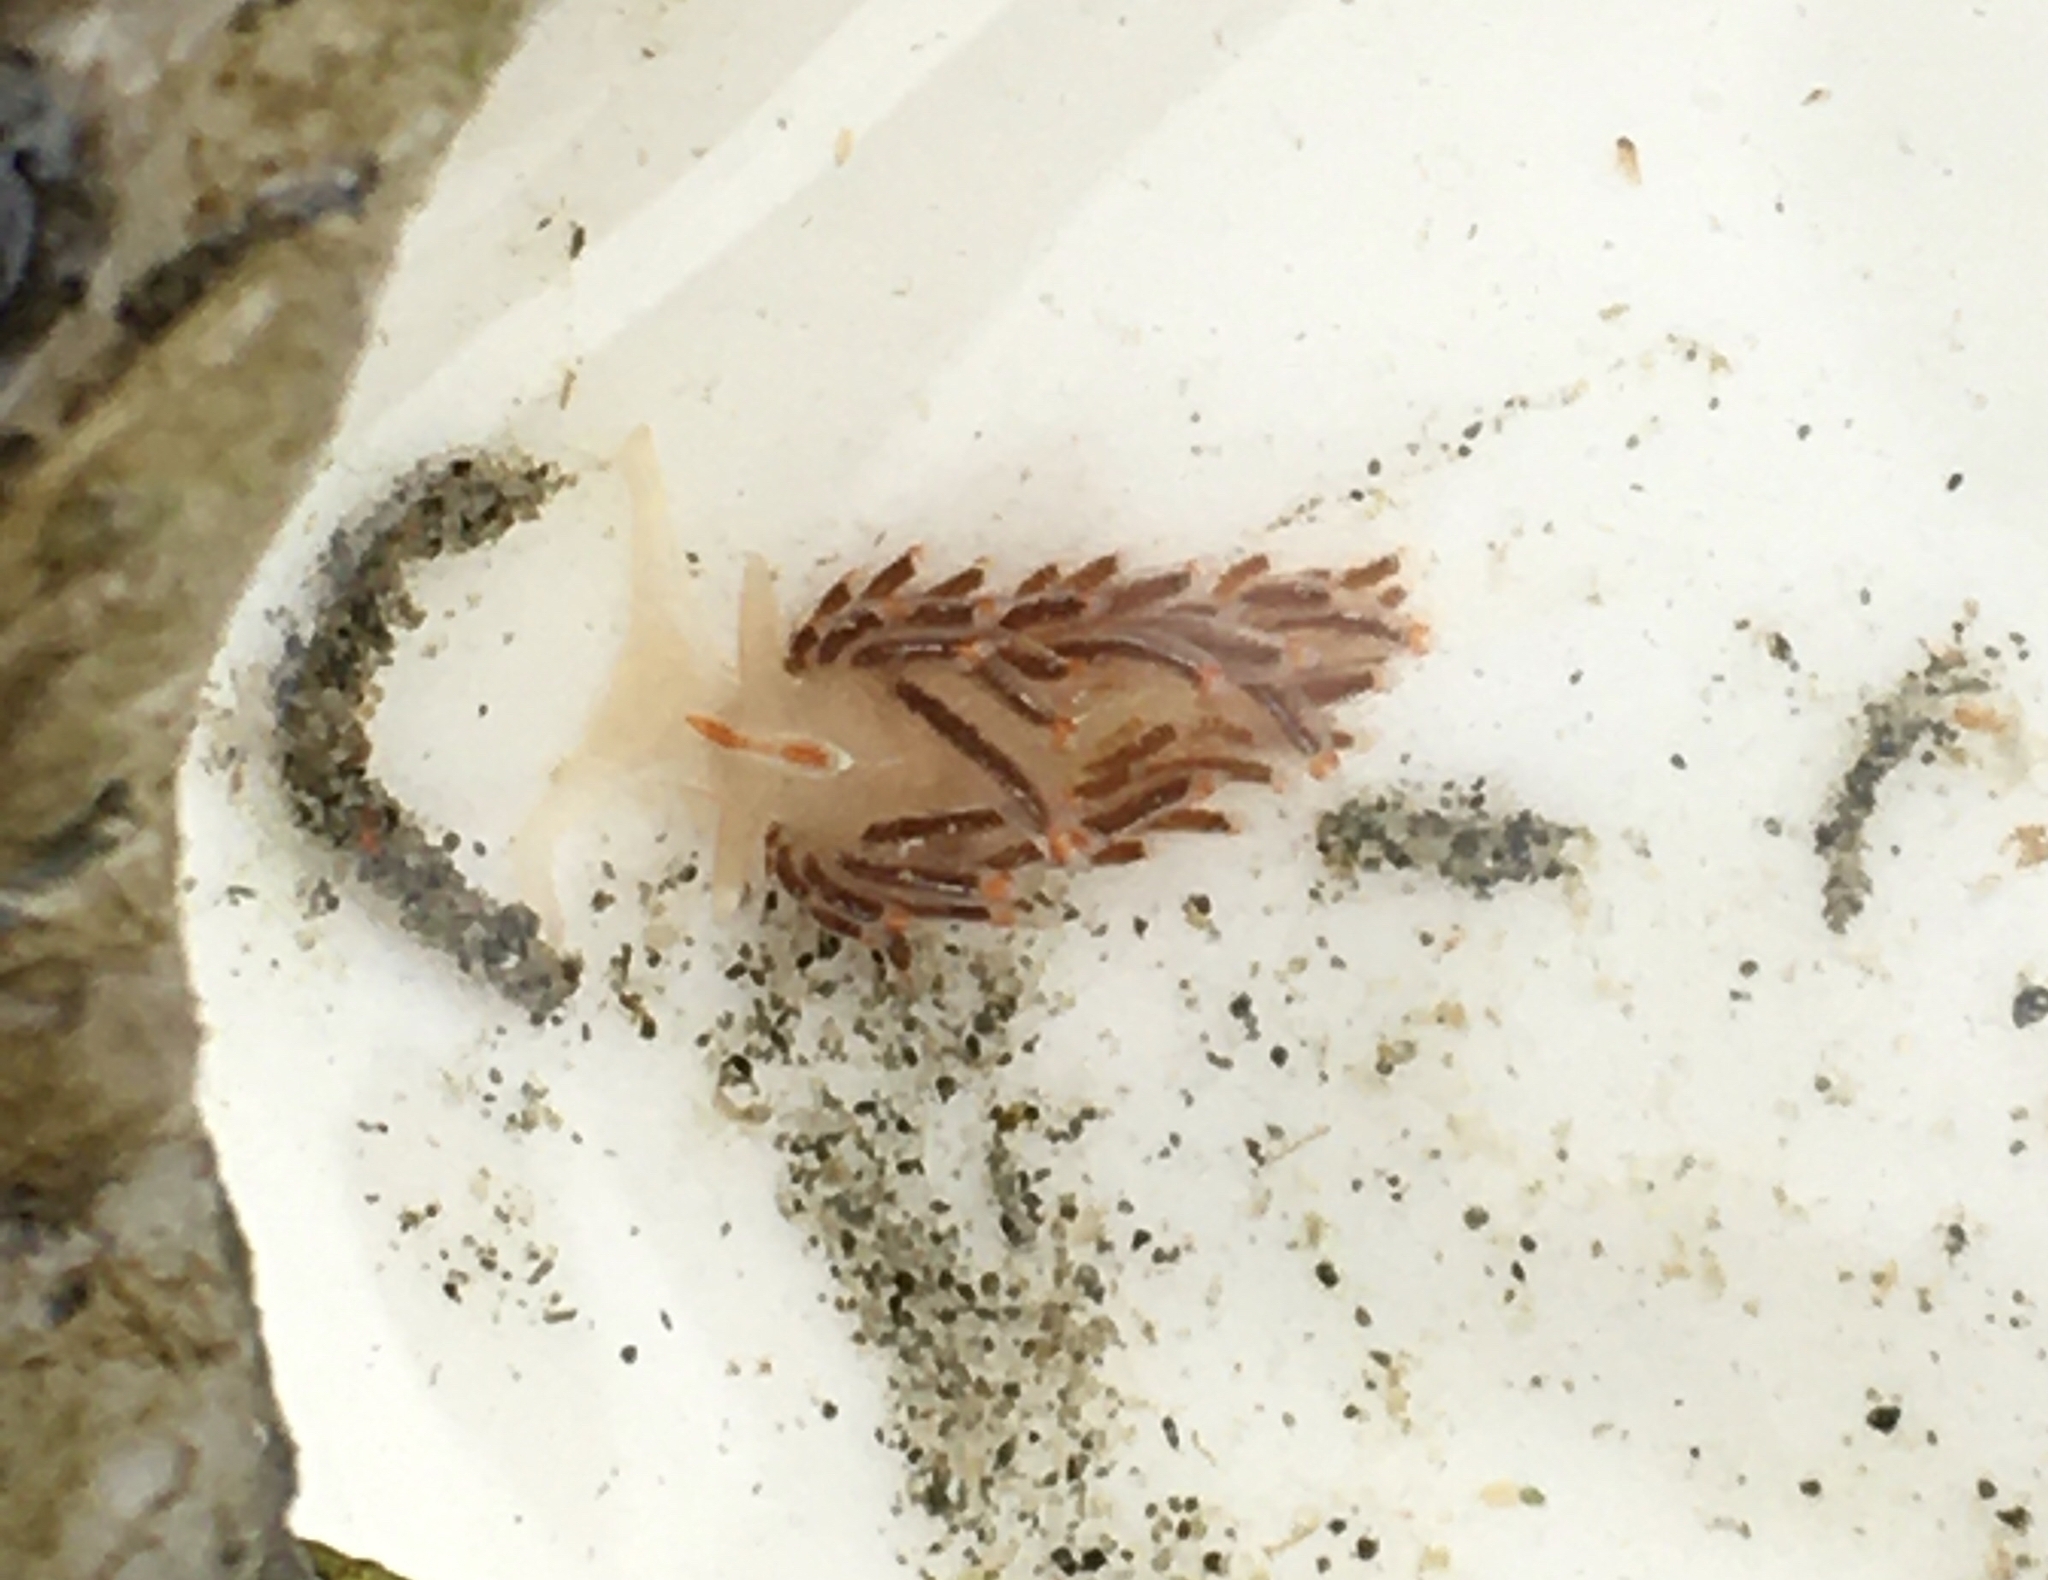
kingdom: Animalia
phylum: Mollusca
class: Gastropoda
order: Nudibranchia
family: Myrrhinidae
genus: Hermissenda
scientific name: Hermissenda crassicornis
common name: Hermissenda
